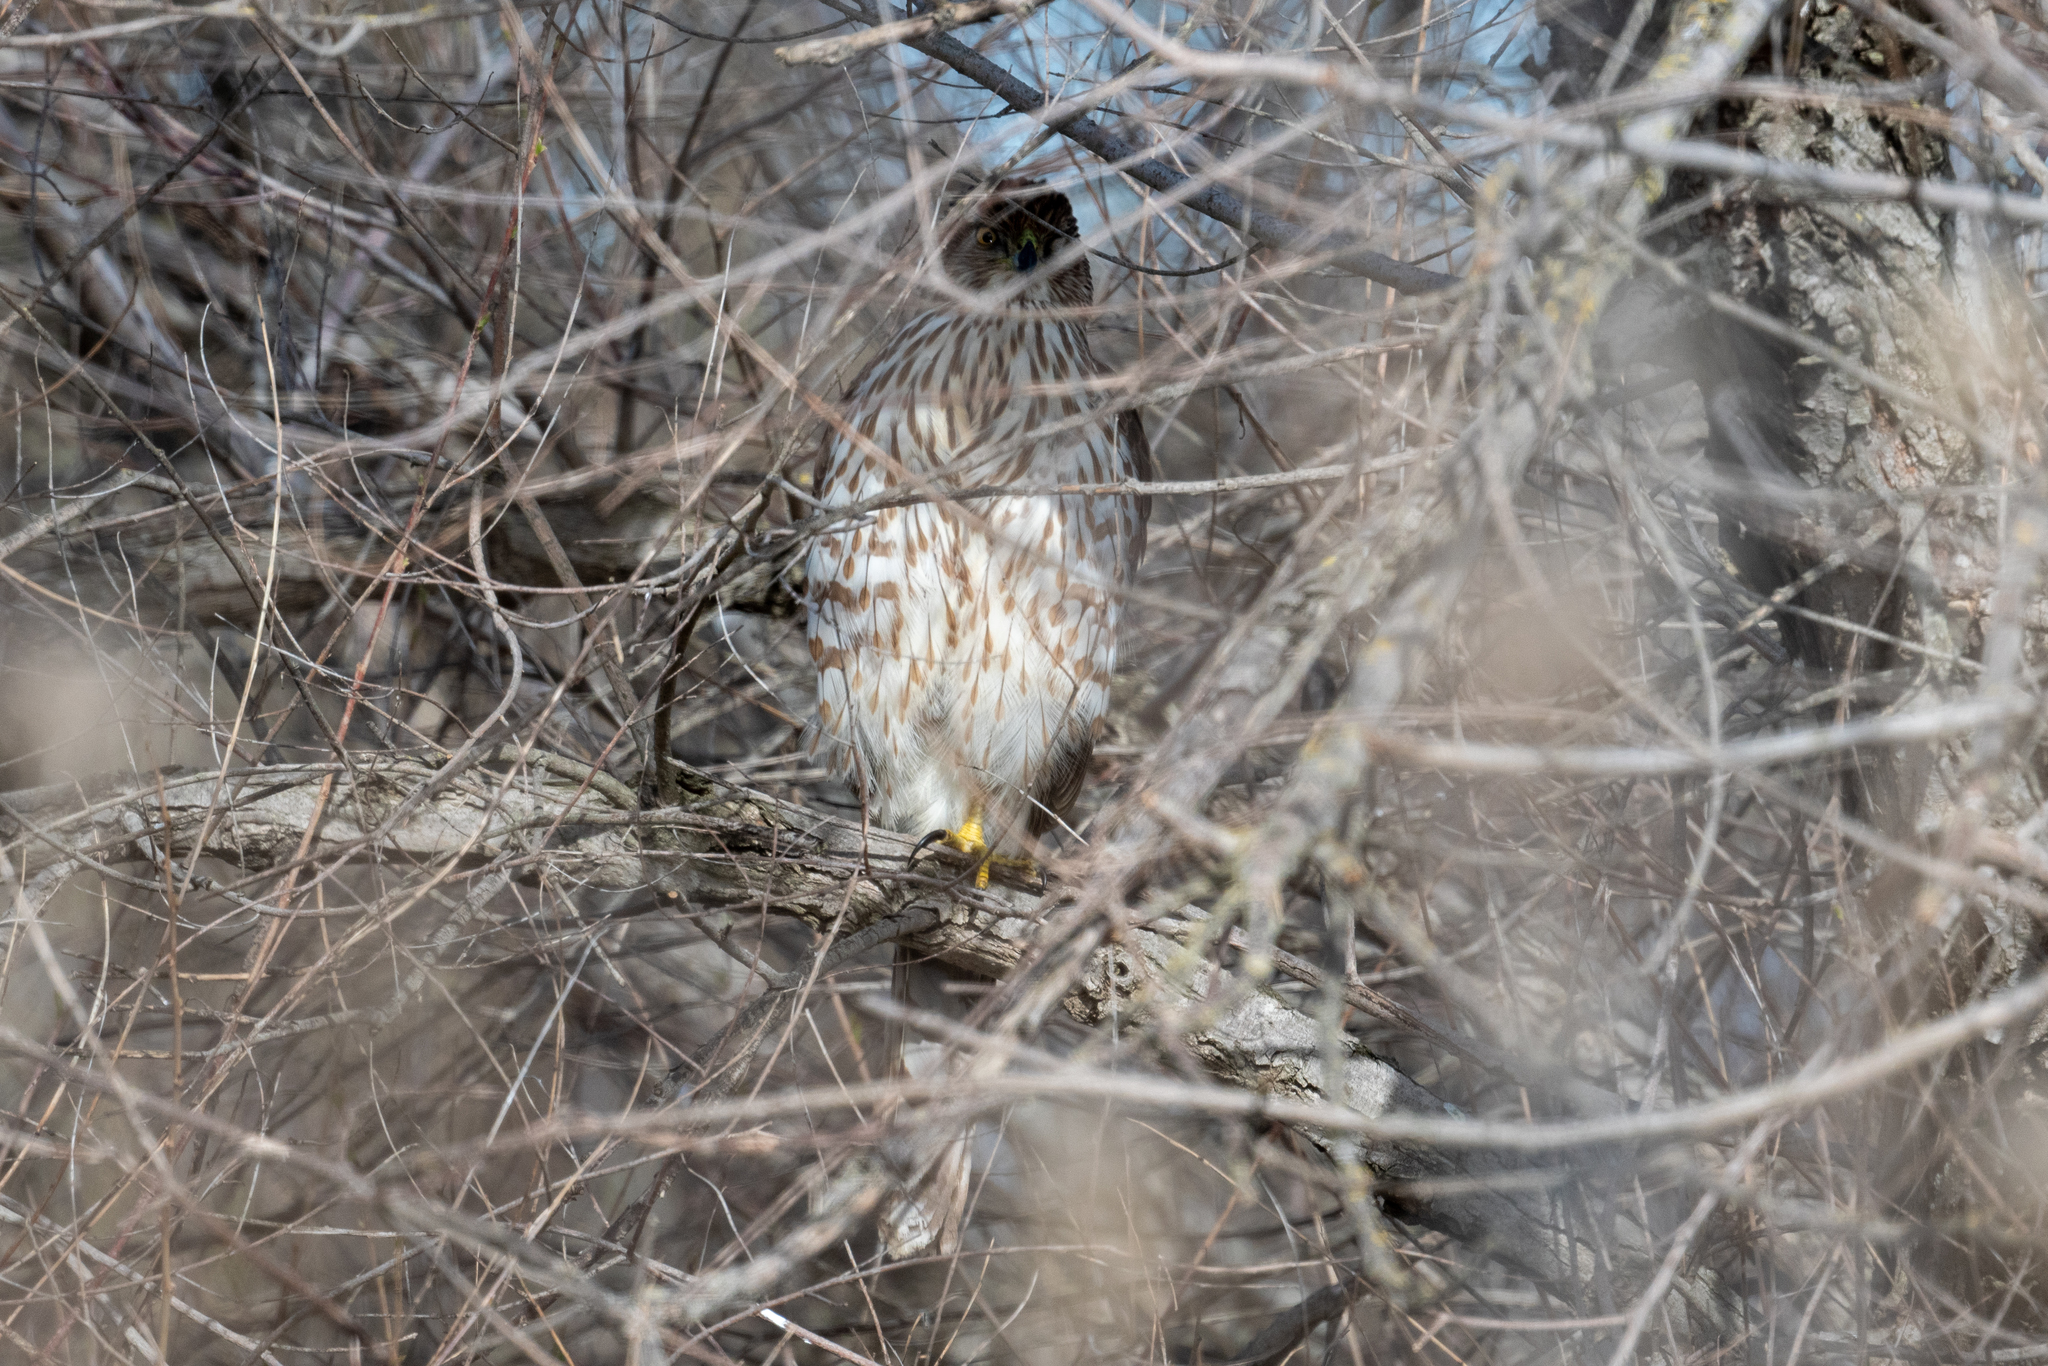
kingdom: Animalia
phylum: Chordata
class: Aves
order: Accipitriformes
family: Accipitridae
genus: Accipiter
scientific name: Accipiter cooperii
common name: Cooper's hawk
